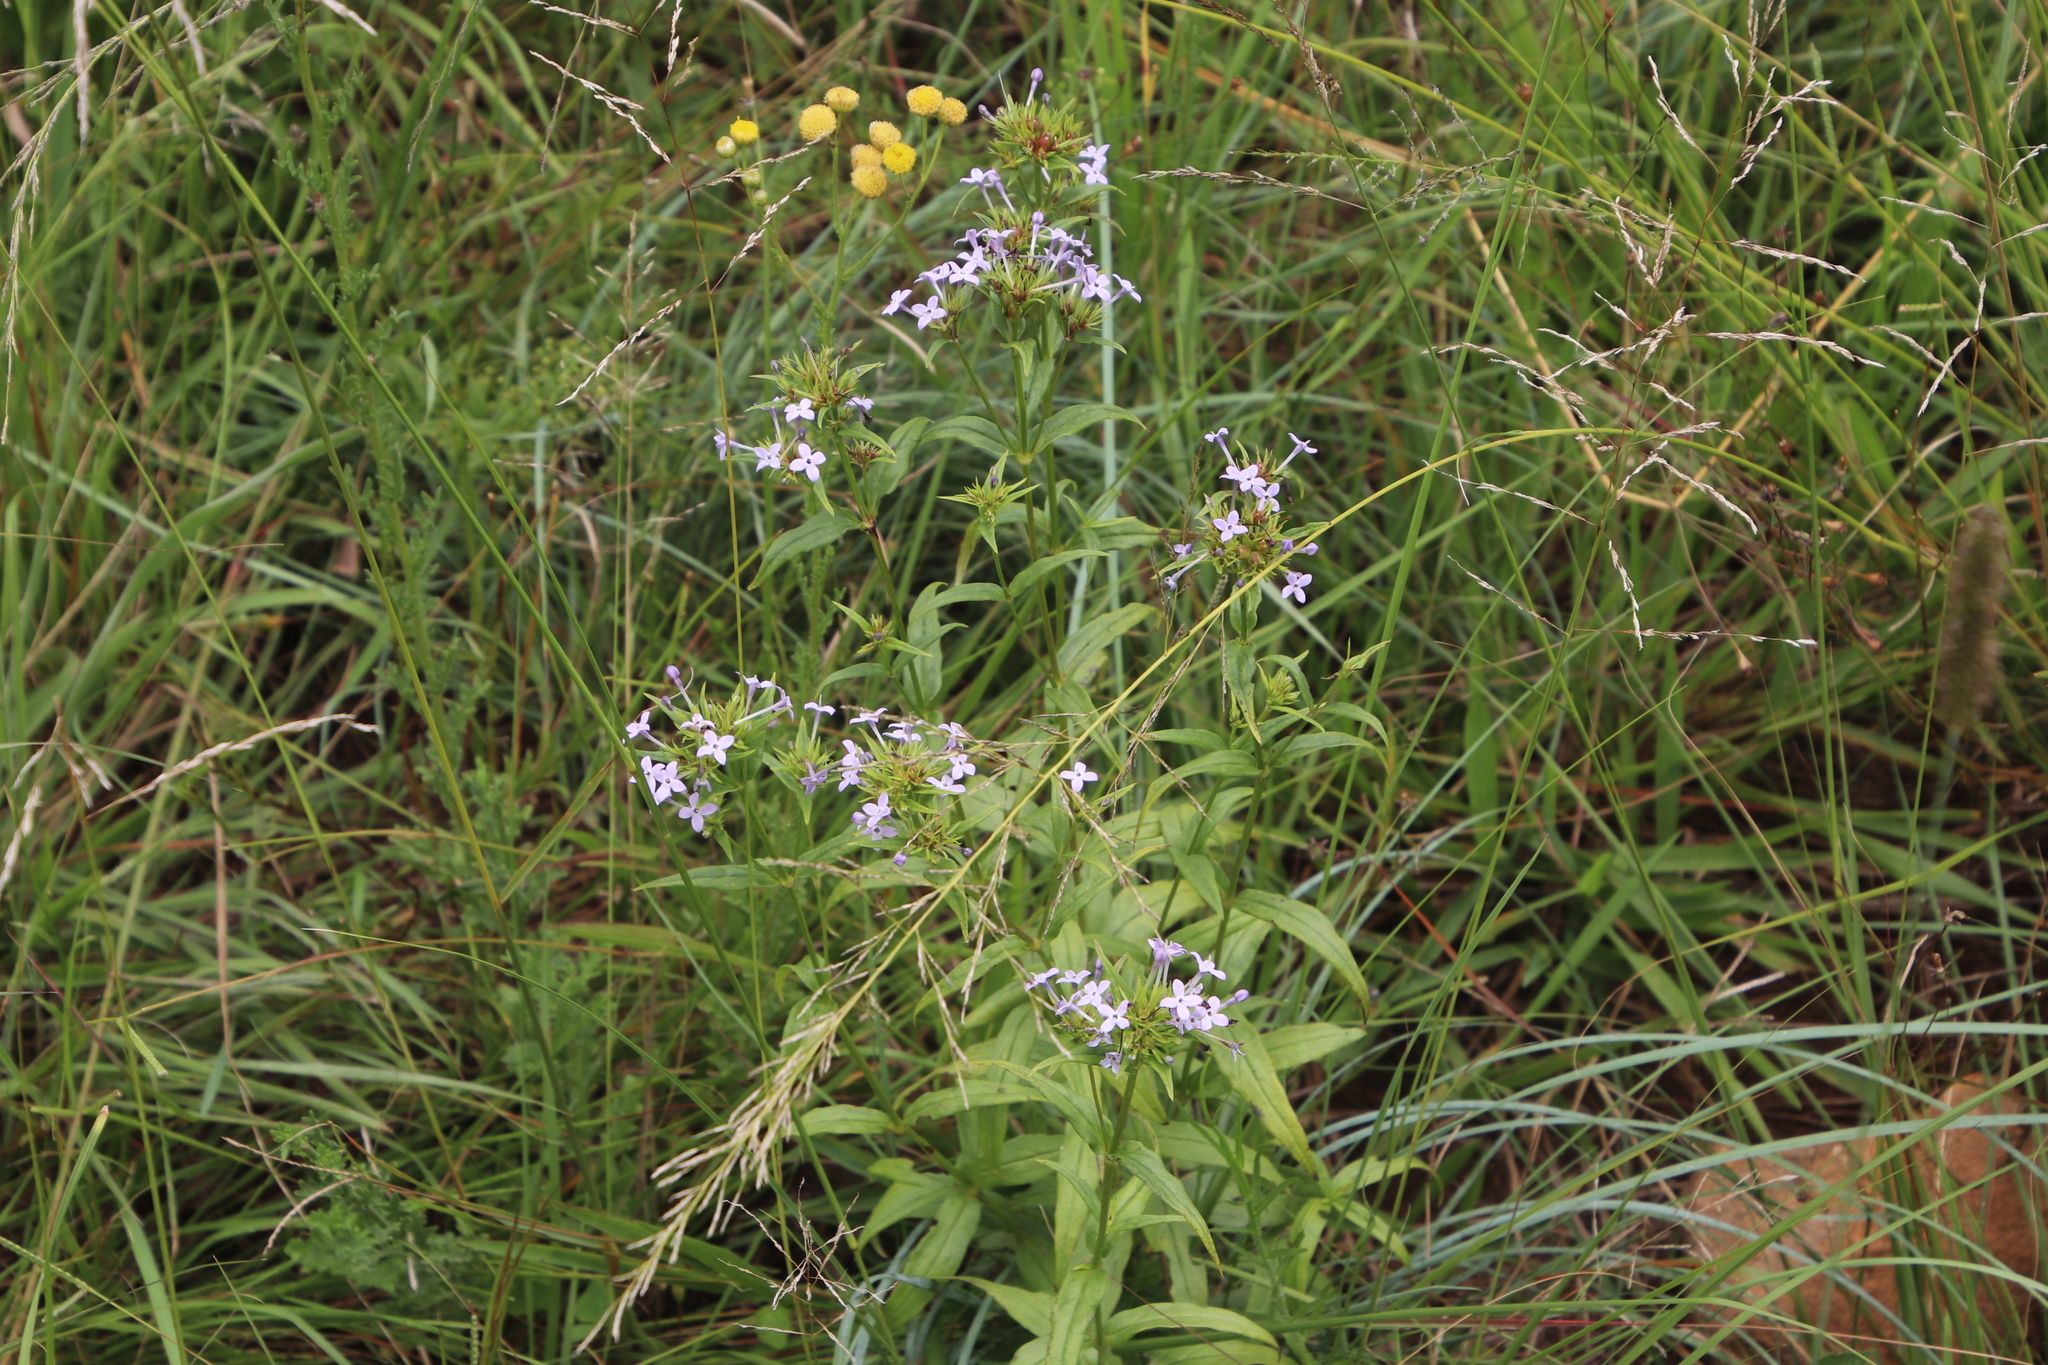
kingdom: Plantae
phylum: Tracheophyta
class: Magnoliopsida
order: Gentianales
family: Rubiaceae
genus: Conostomium
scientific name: Conostomium natalense
